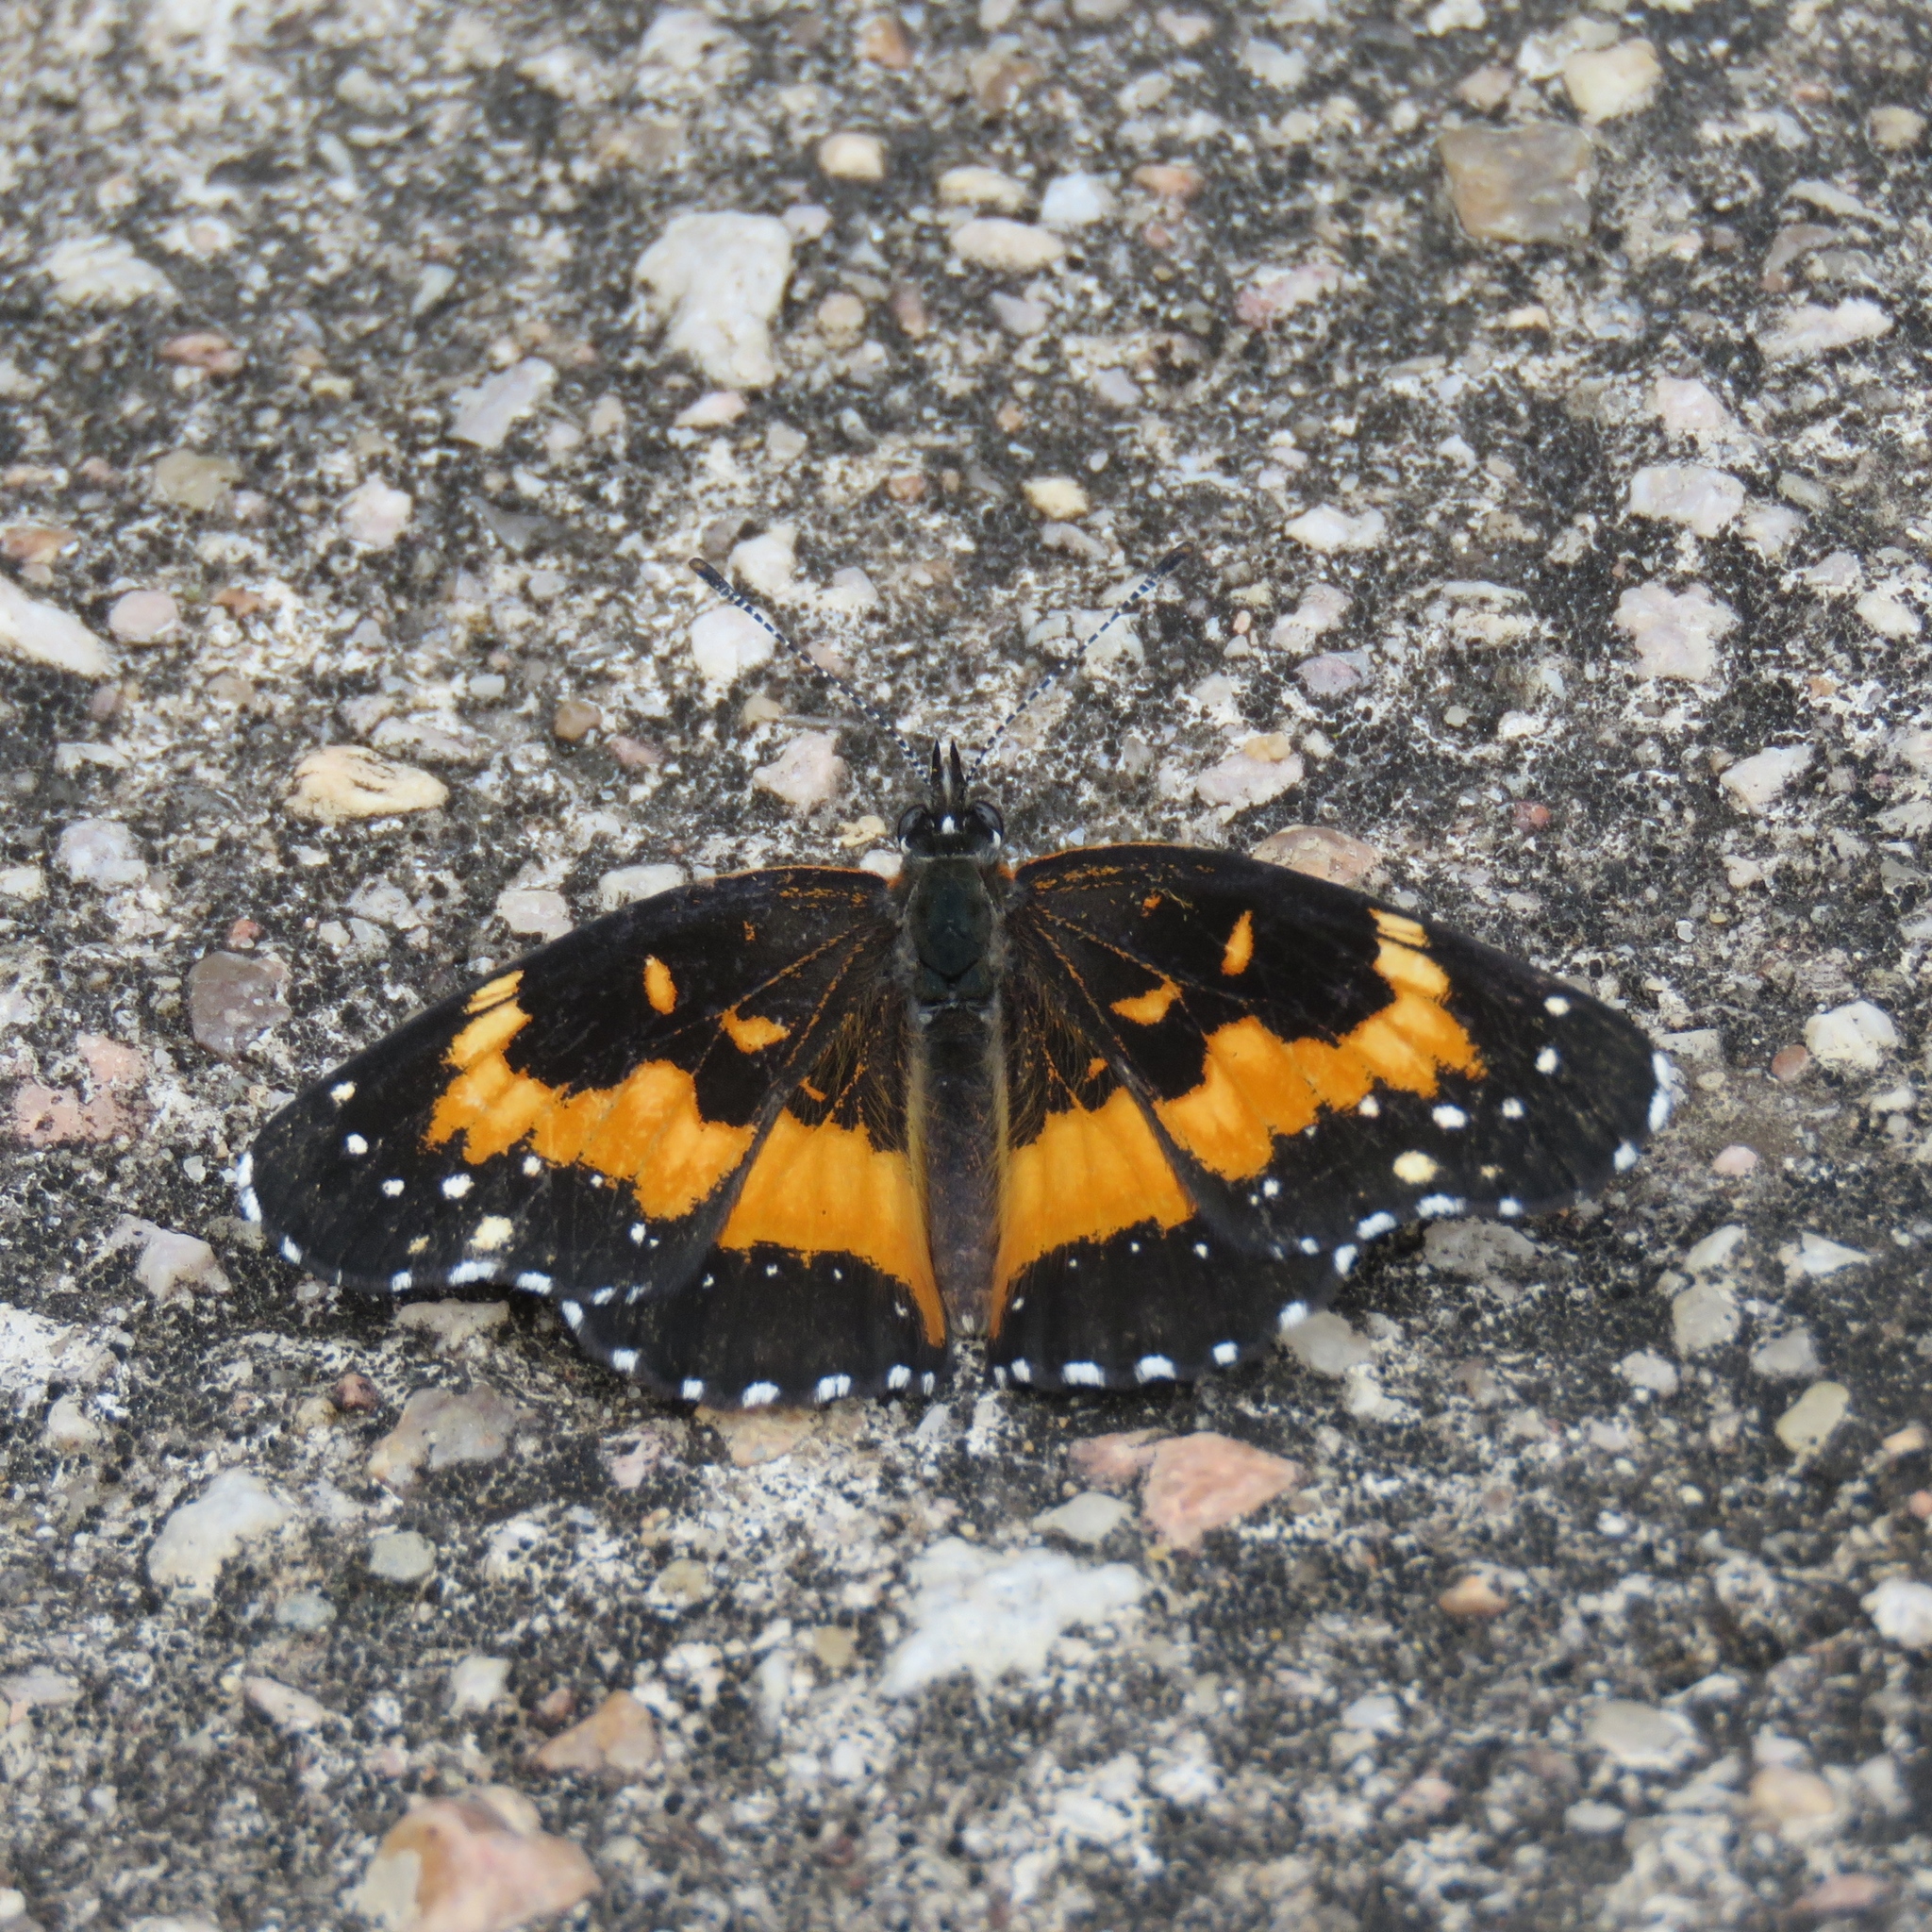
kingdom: Animalia
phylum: Arthropoda
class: Insecta
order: Lepidoptera
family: Nymphalidae
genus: Chlosyne
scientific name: Chlosyne lacinia
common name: Bordered patch
